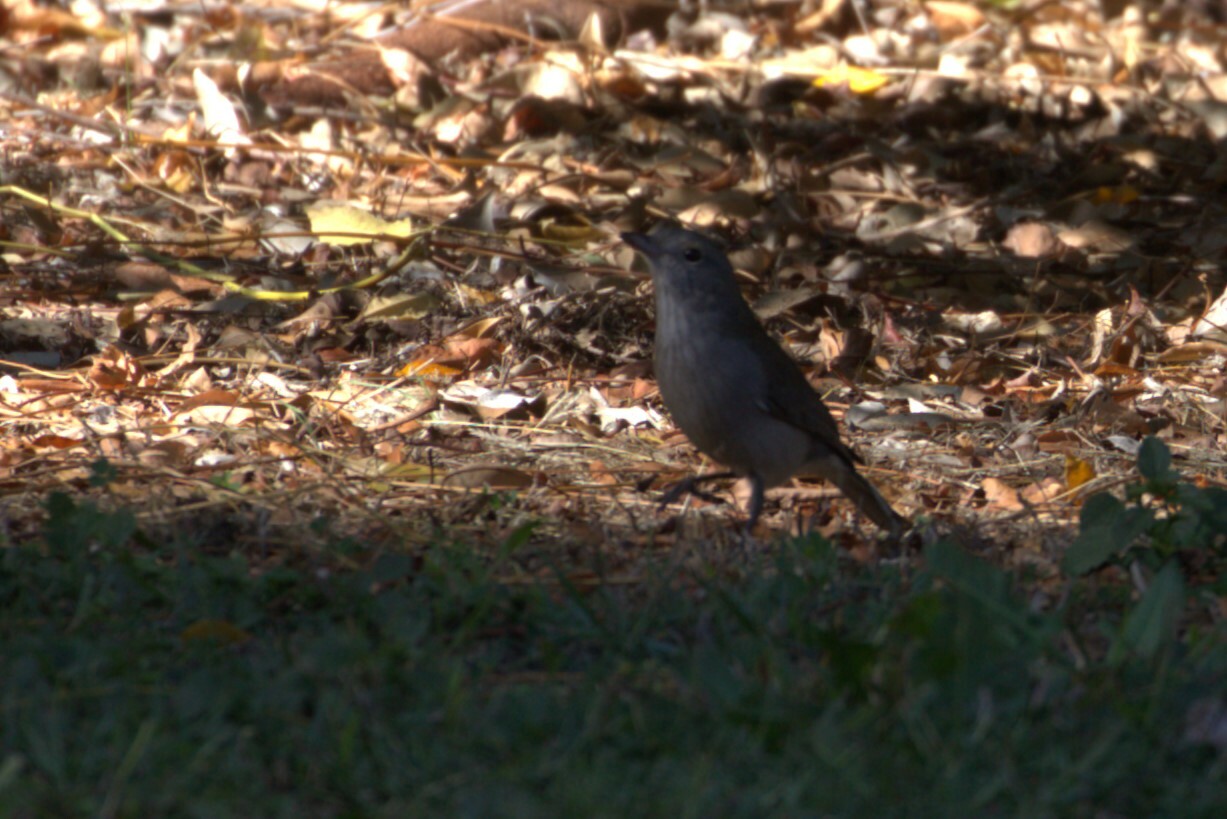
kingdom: Animalia
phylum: Chordata
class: Aves
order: Passeriformes
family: Pachycephalidae
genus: Colluricincla
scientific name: Colluricincla harmonica
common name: Grey shrikethrush
